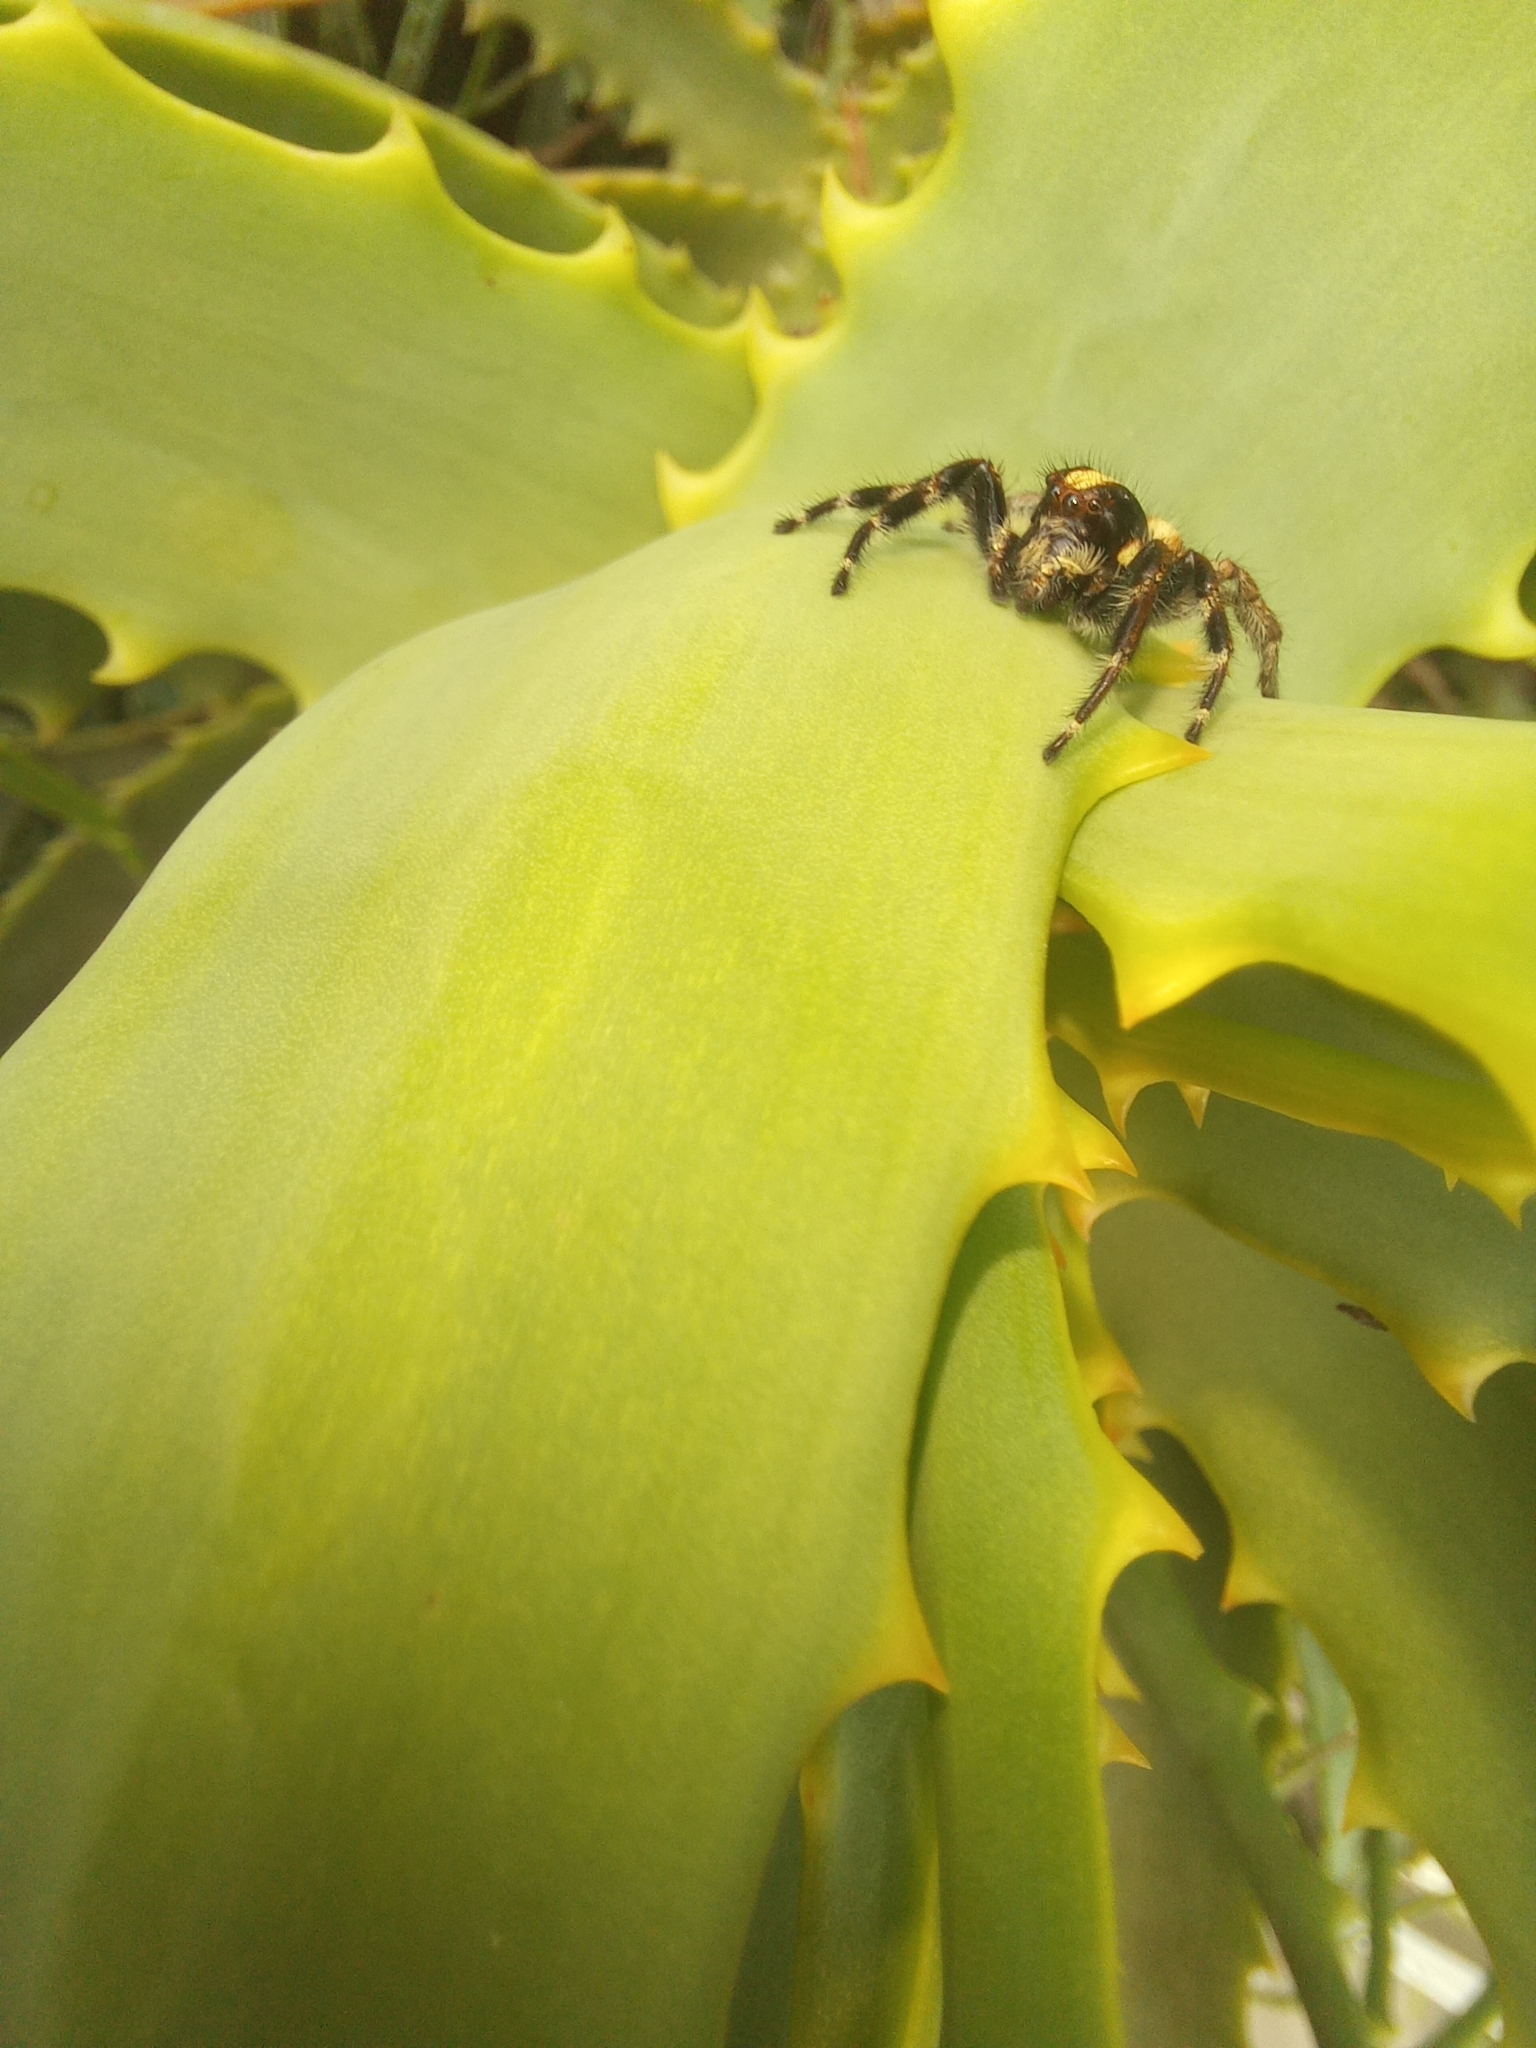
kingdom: Animalia
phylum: Arthropoda
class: Arachnida
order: Araneae
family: Salticidae
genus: Megafreya
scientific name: Megafreya sutrix
